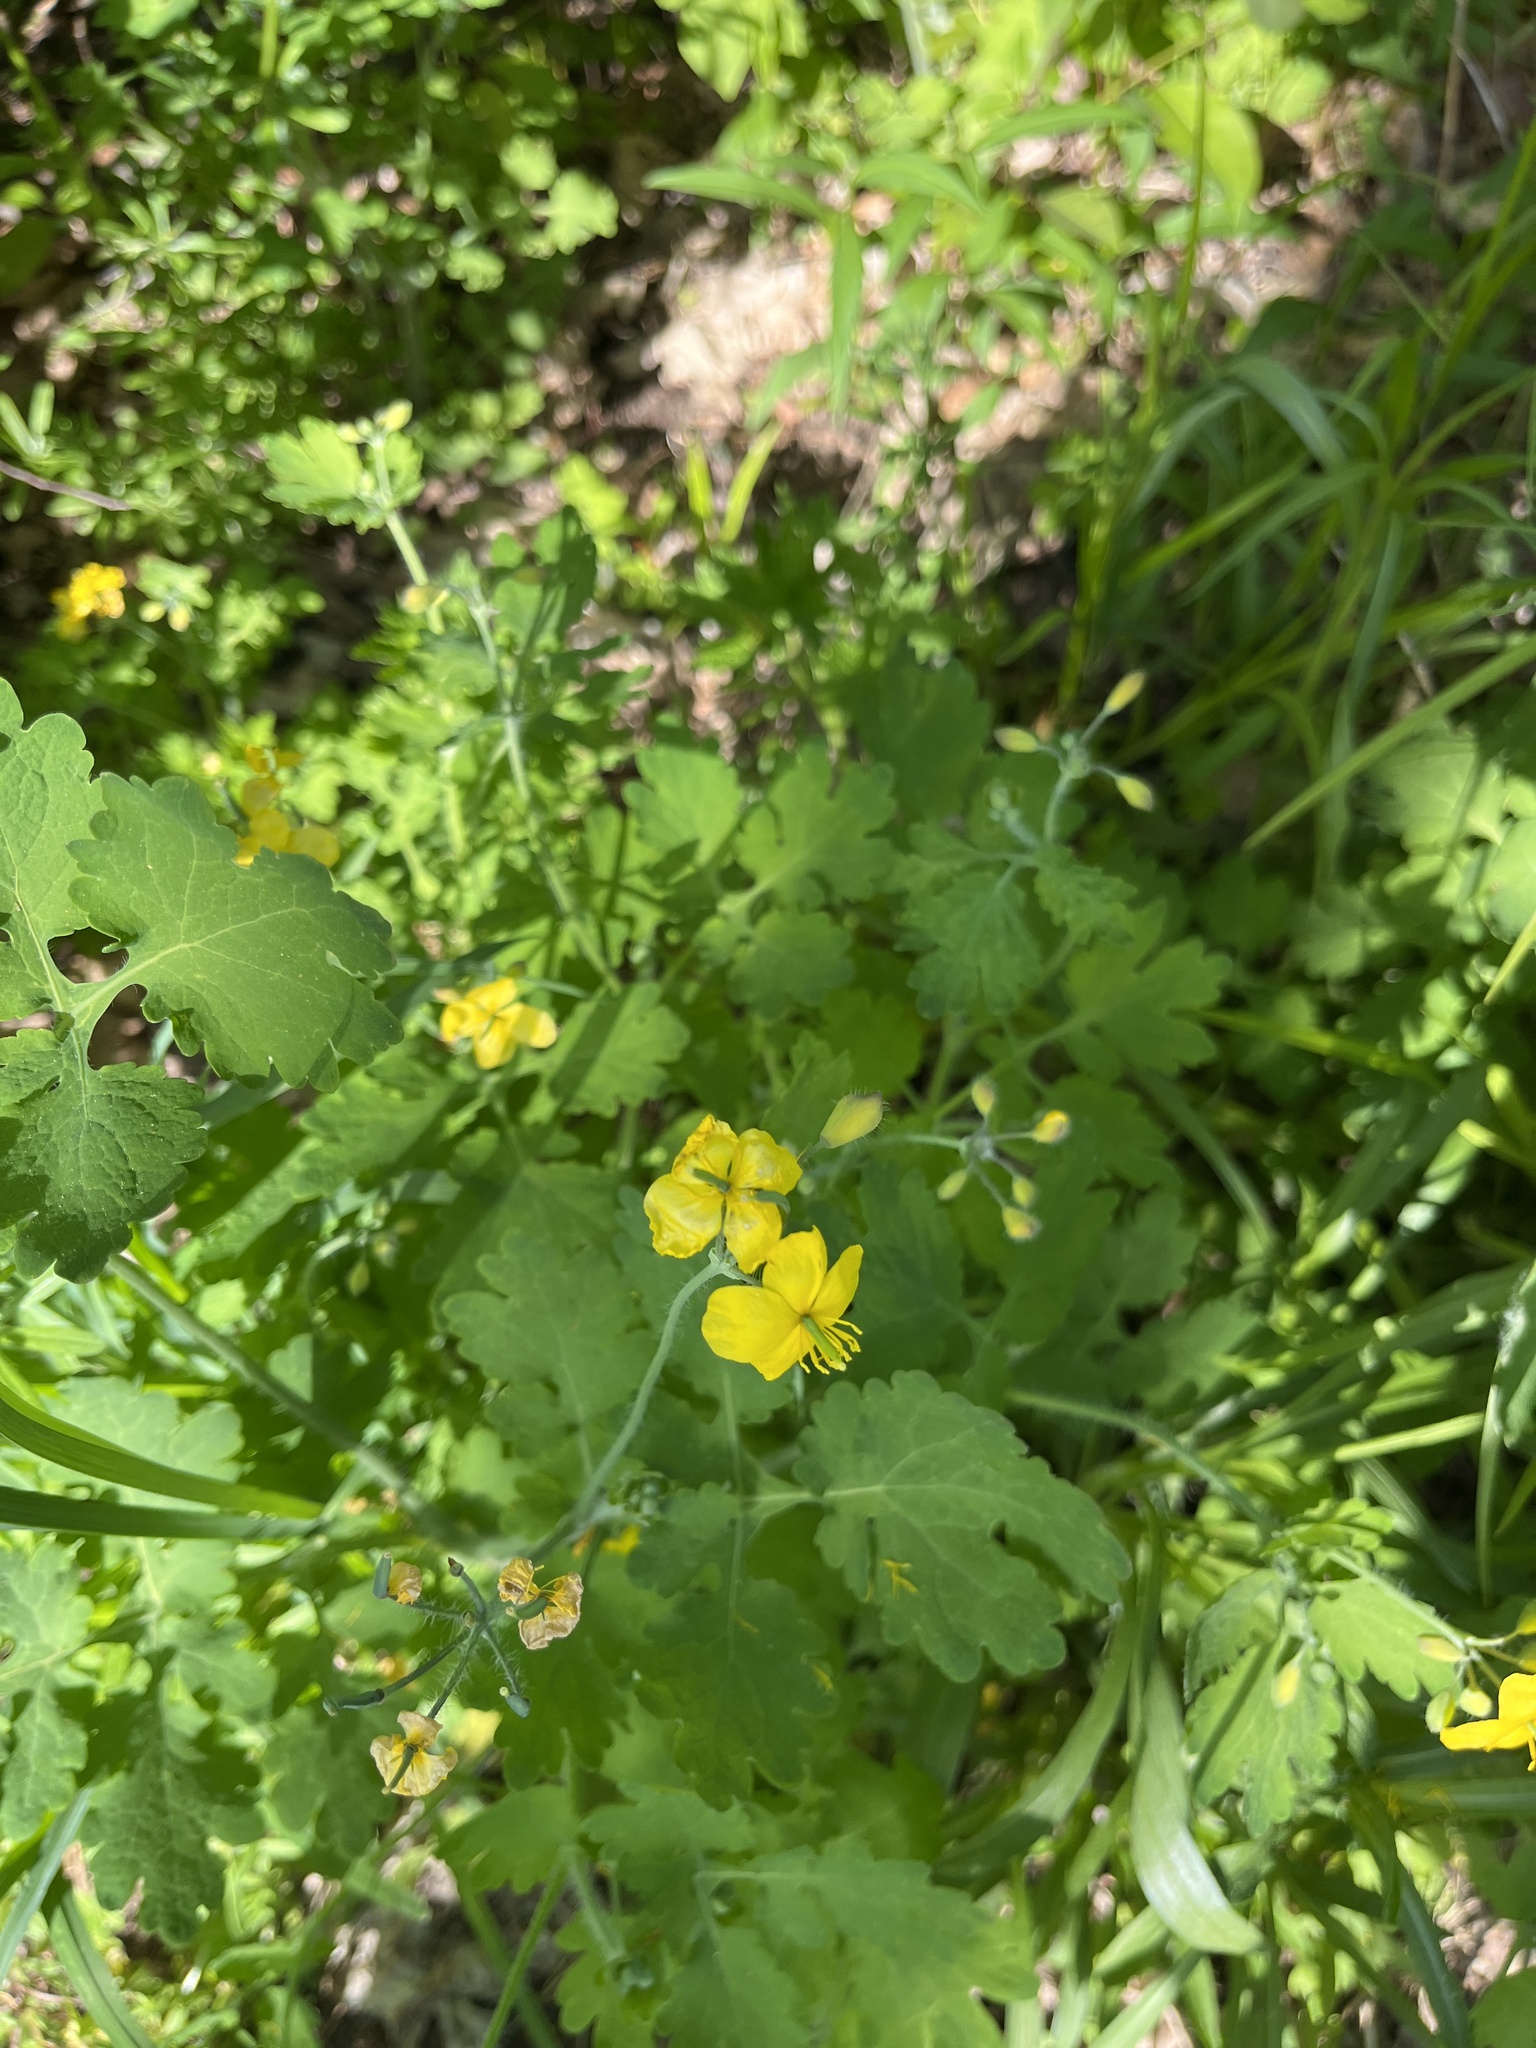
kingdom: Plantae
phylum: Tracheophyta
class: Magnoliopsida
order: Ranunculales
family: Papaveraceae
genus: Chelidonium
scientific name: Chelidonium majus
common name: Greater celandine
